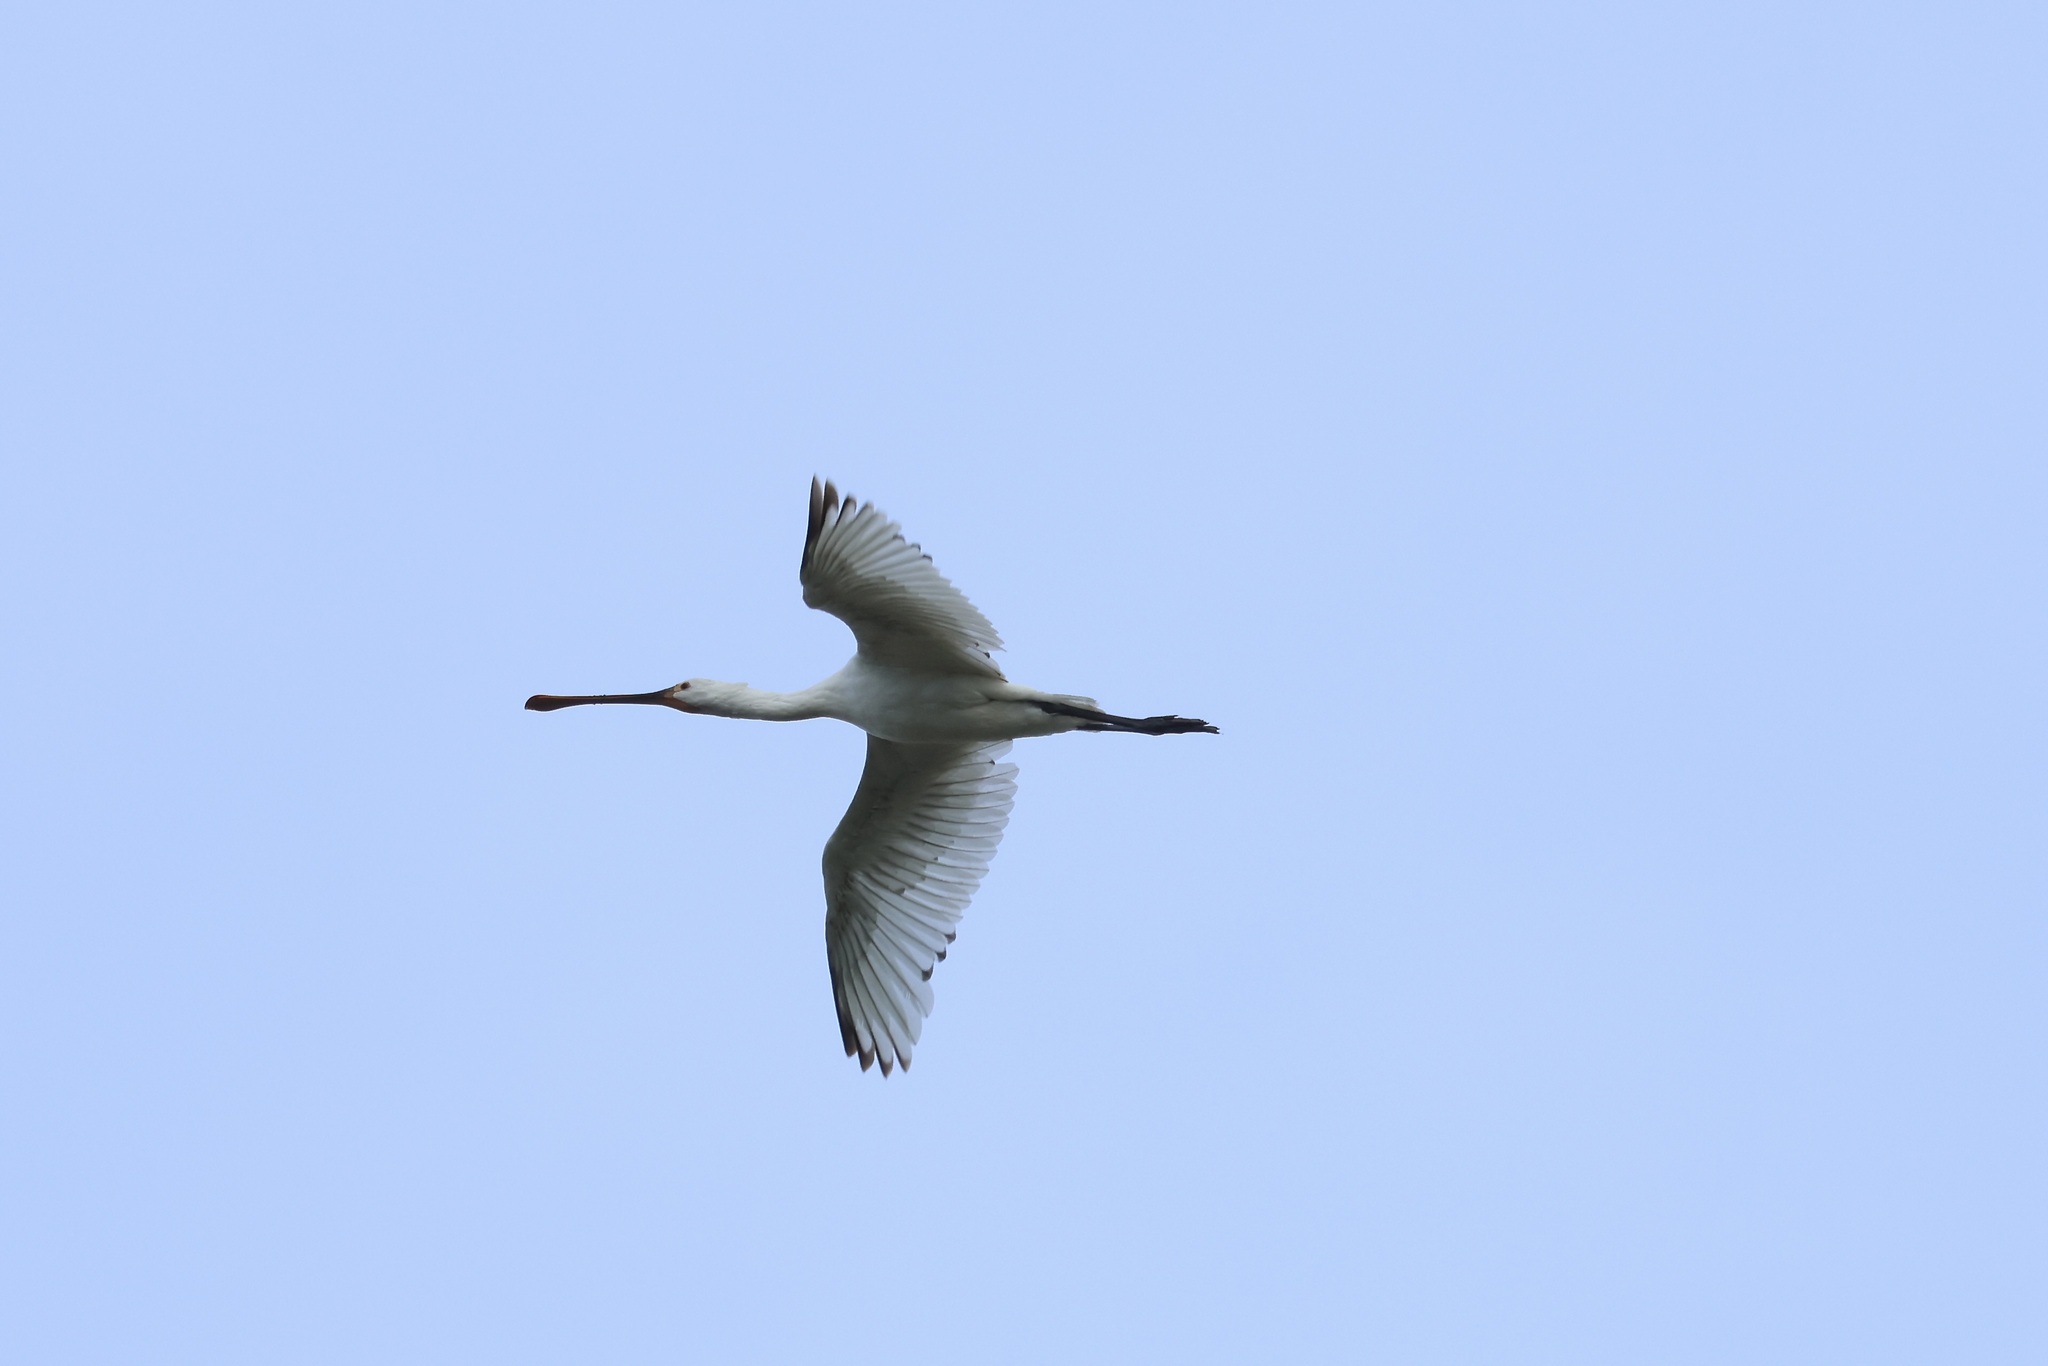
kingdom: Animalia
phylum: Chordata
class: Aves
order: Pelecaniformes
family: Threskiornithidae
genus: Platalea
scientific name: Platalea leucorodia
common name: Eurasian spoonbill
